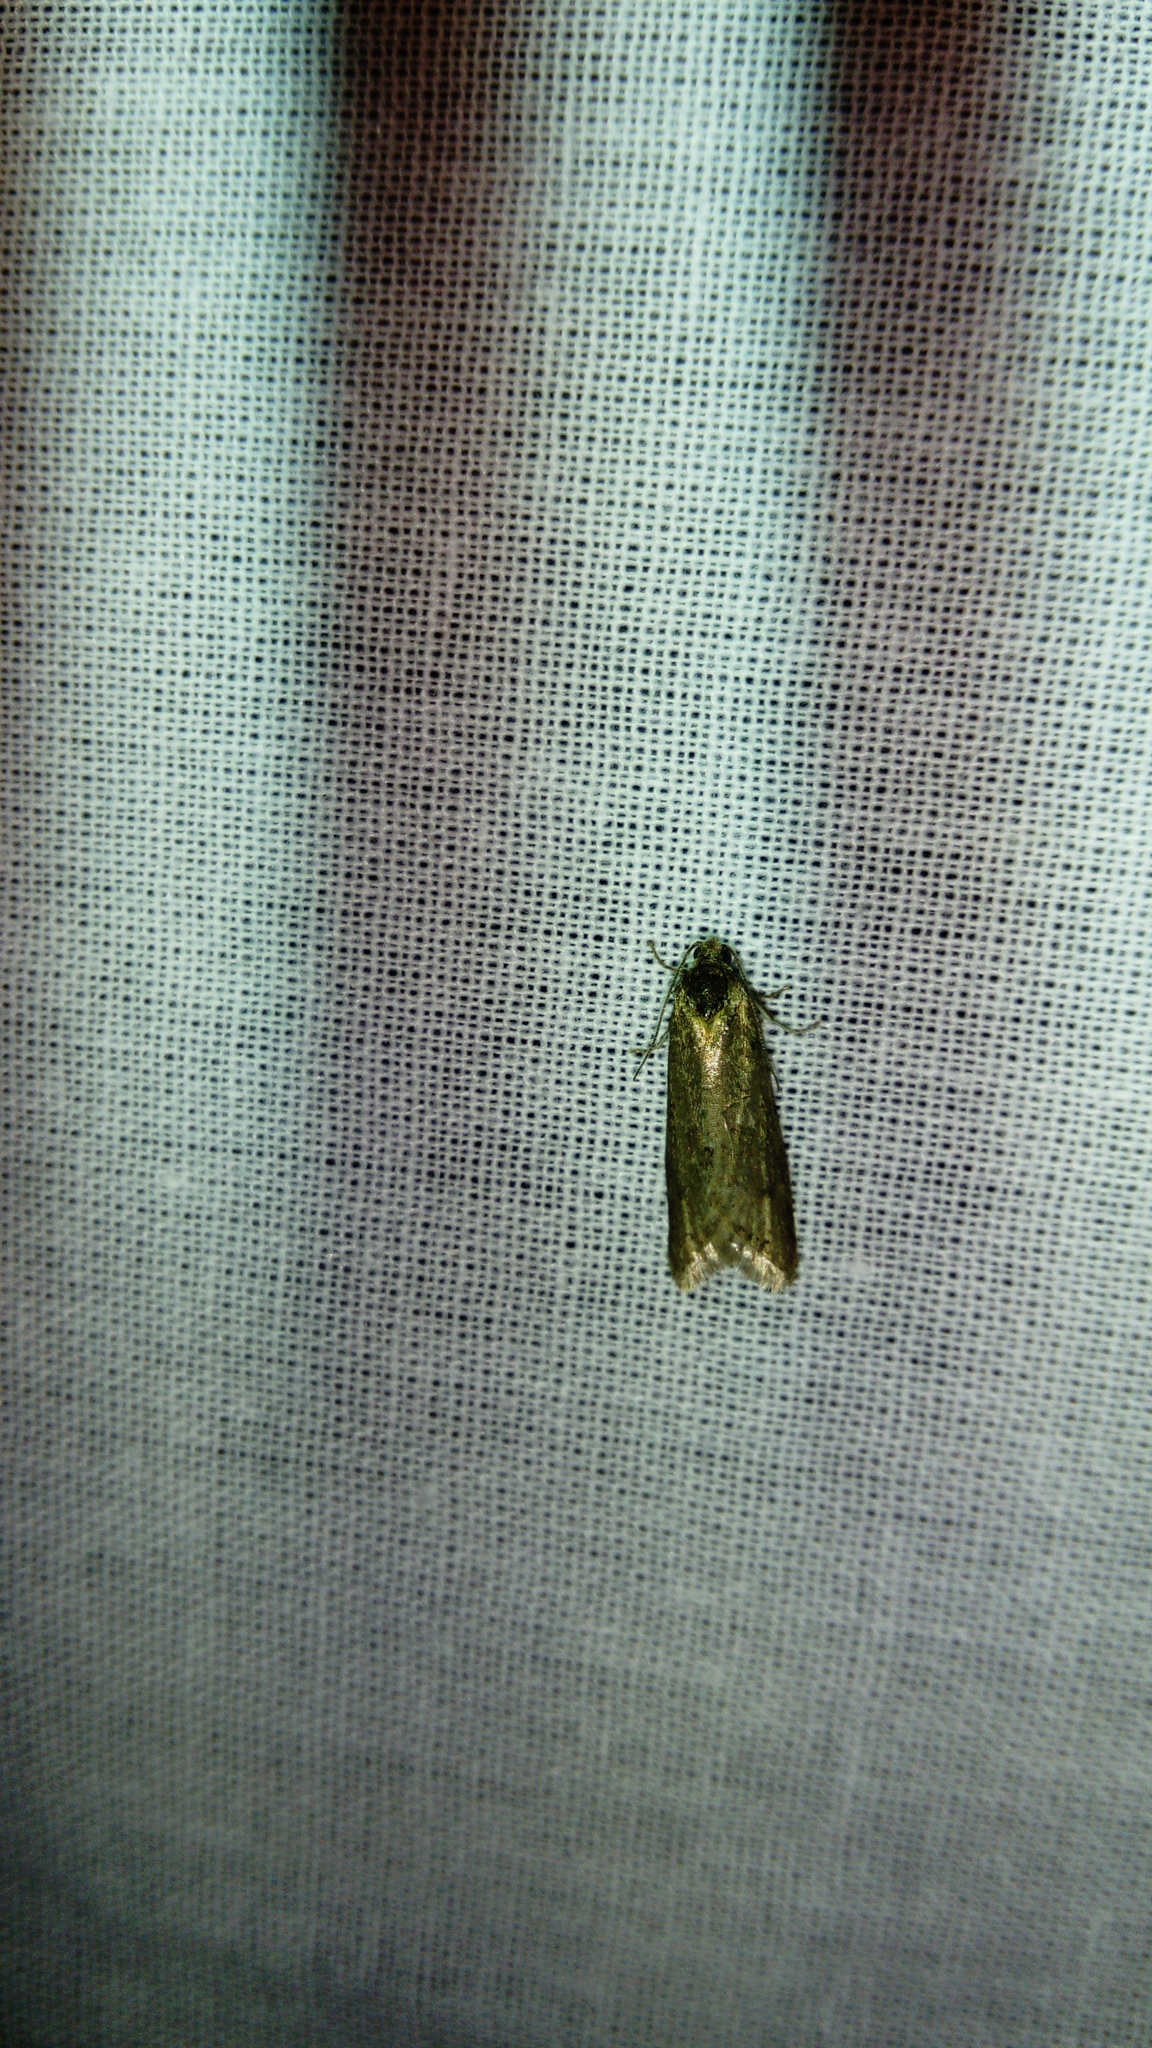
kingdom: Animalia
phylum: Arthropoda
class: Insecta
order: Lepidoptera
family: Tortricidae
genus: Tortricodes
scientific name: Tortricodes alternella
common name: Winter shade
